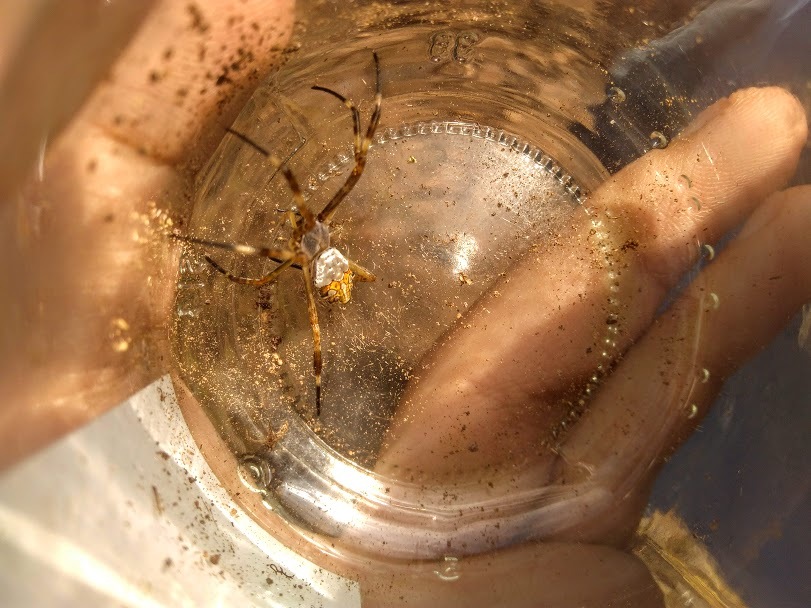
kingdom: Animalia
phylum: Arthropoda
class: Arachnida
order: Araneae
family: Araneidae
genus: Argiope
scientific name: Argiope argentata
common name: Orb weavers
